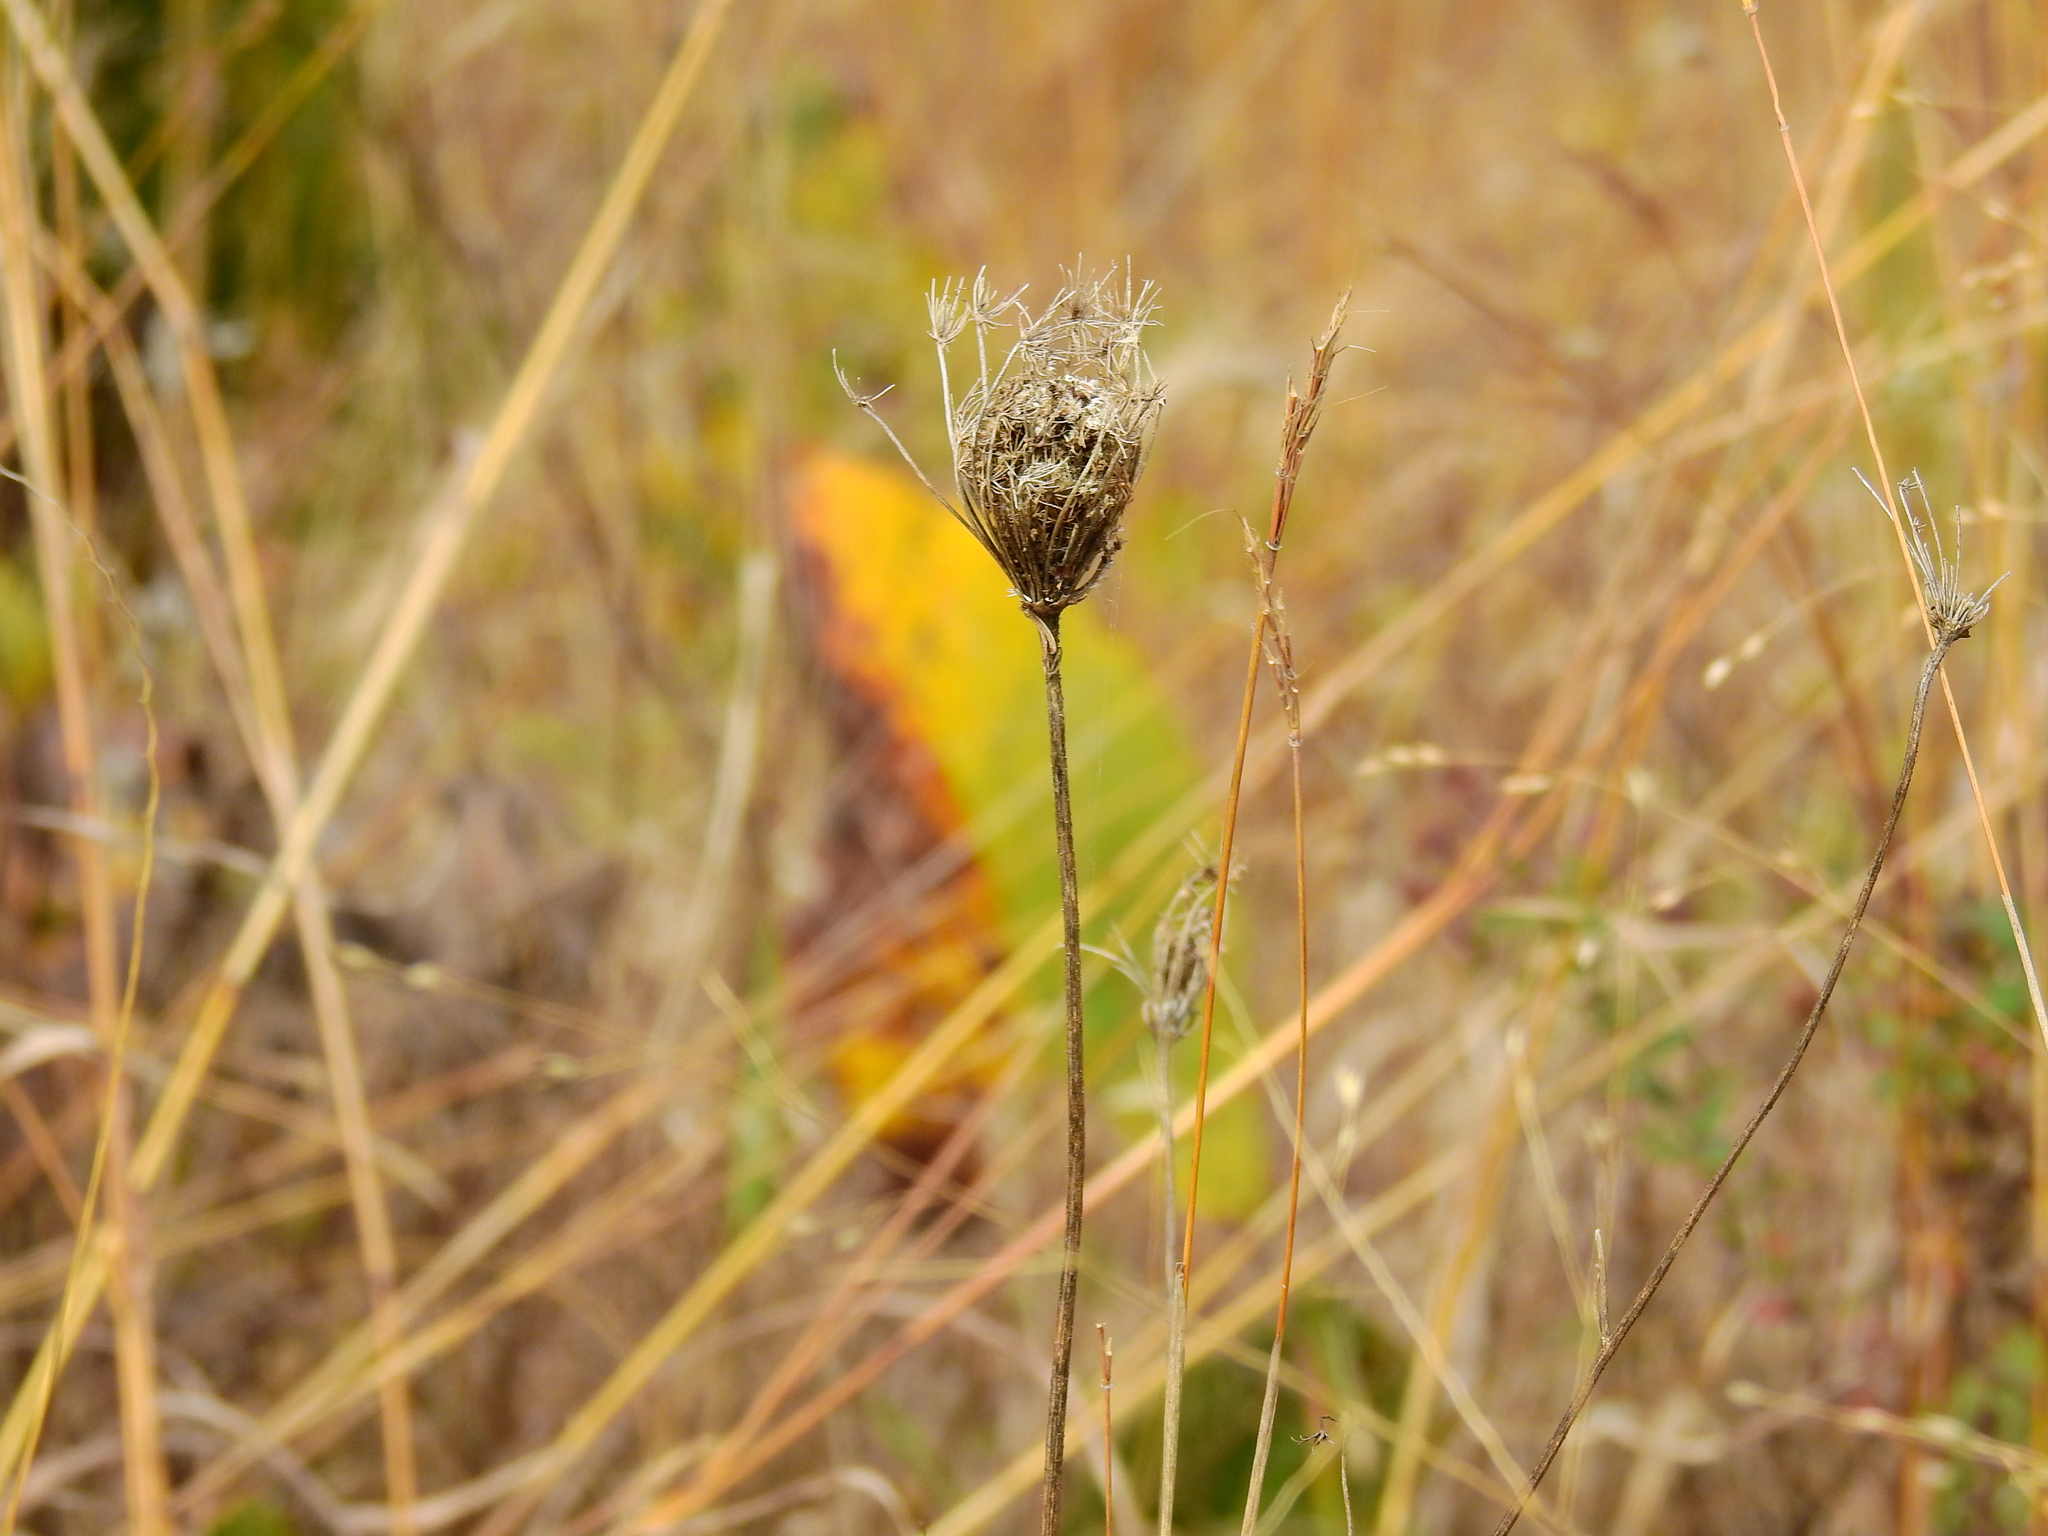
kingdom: Plantae
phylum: Tracheophyta
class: Magnoliopsida
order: Apiales
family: Apiaceae
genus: Daucus
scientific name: Daucus carota
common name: Wild carrot
